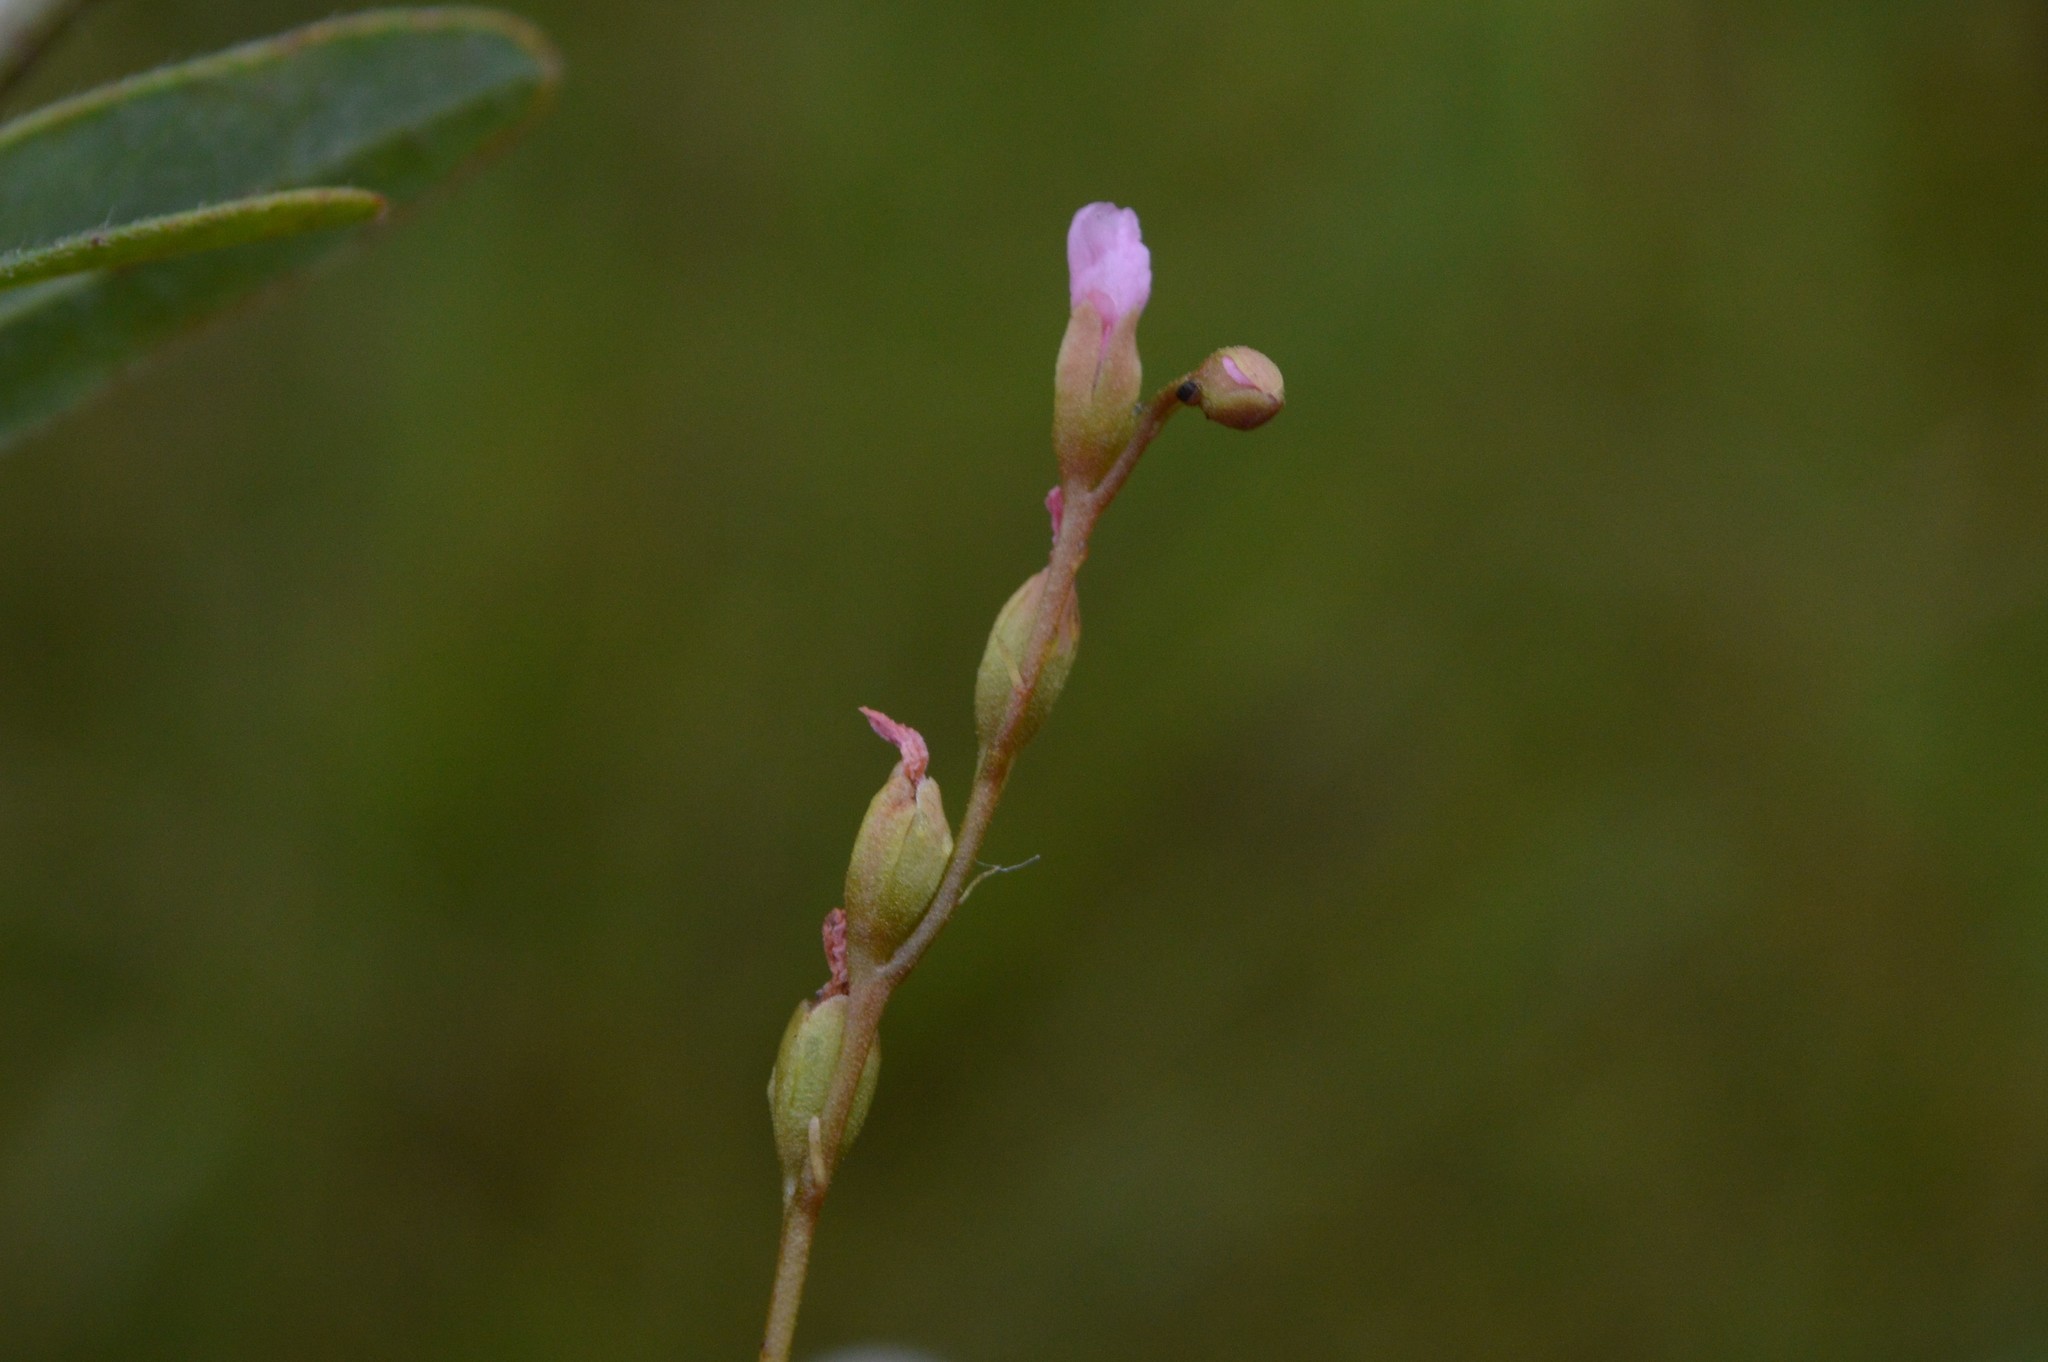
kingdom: Plantae
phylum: Tracheophyta
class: Magnoliopsida
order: Caryophyllales
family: Droseraceae
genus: Drosera
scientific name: Drosera capillaris
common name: Pink sundew
